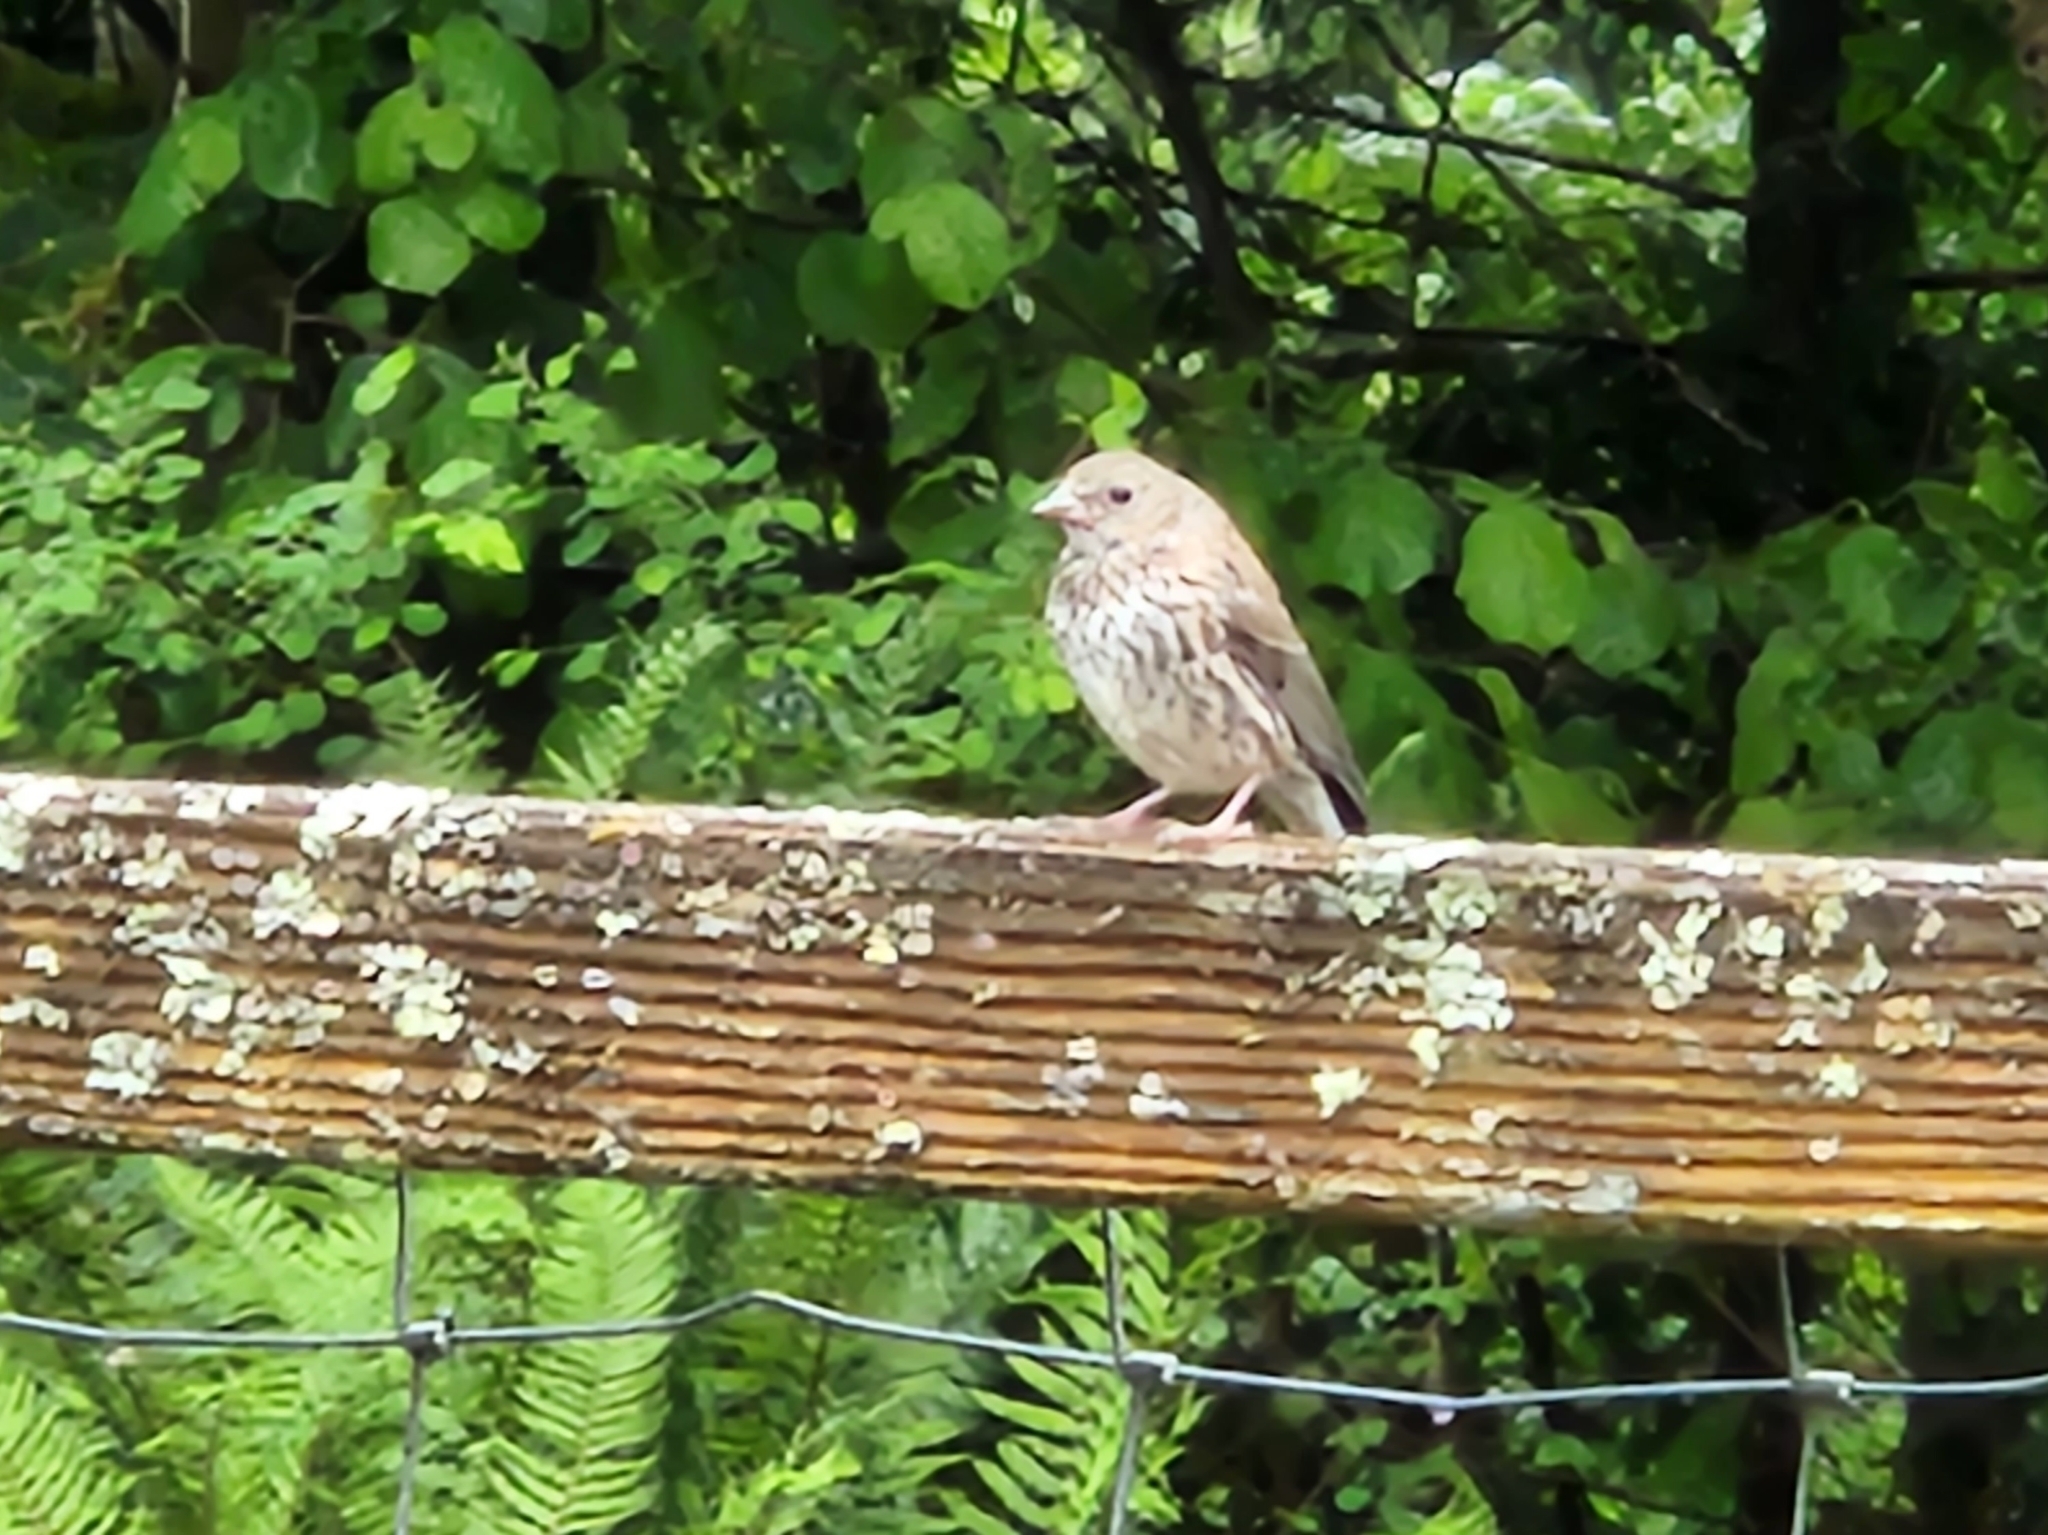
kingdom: Animalia
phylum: Chordata
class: Aves
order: Passeriformes
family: Passerellidae
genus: Junco
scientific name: Junco hyemalis
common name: Dark-eyed junco
